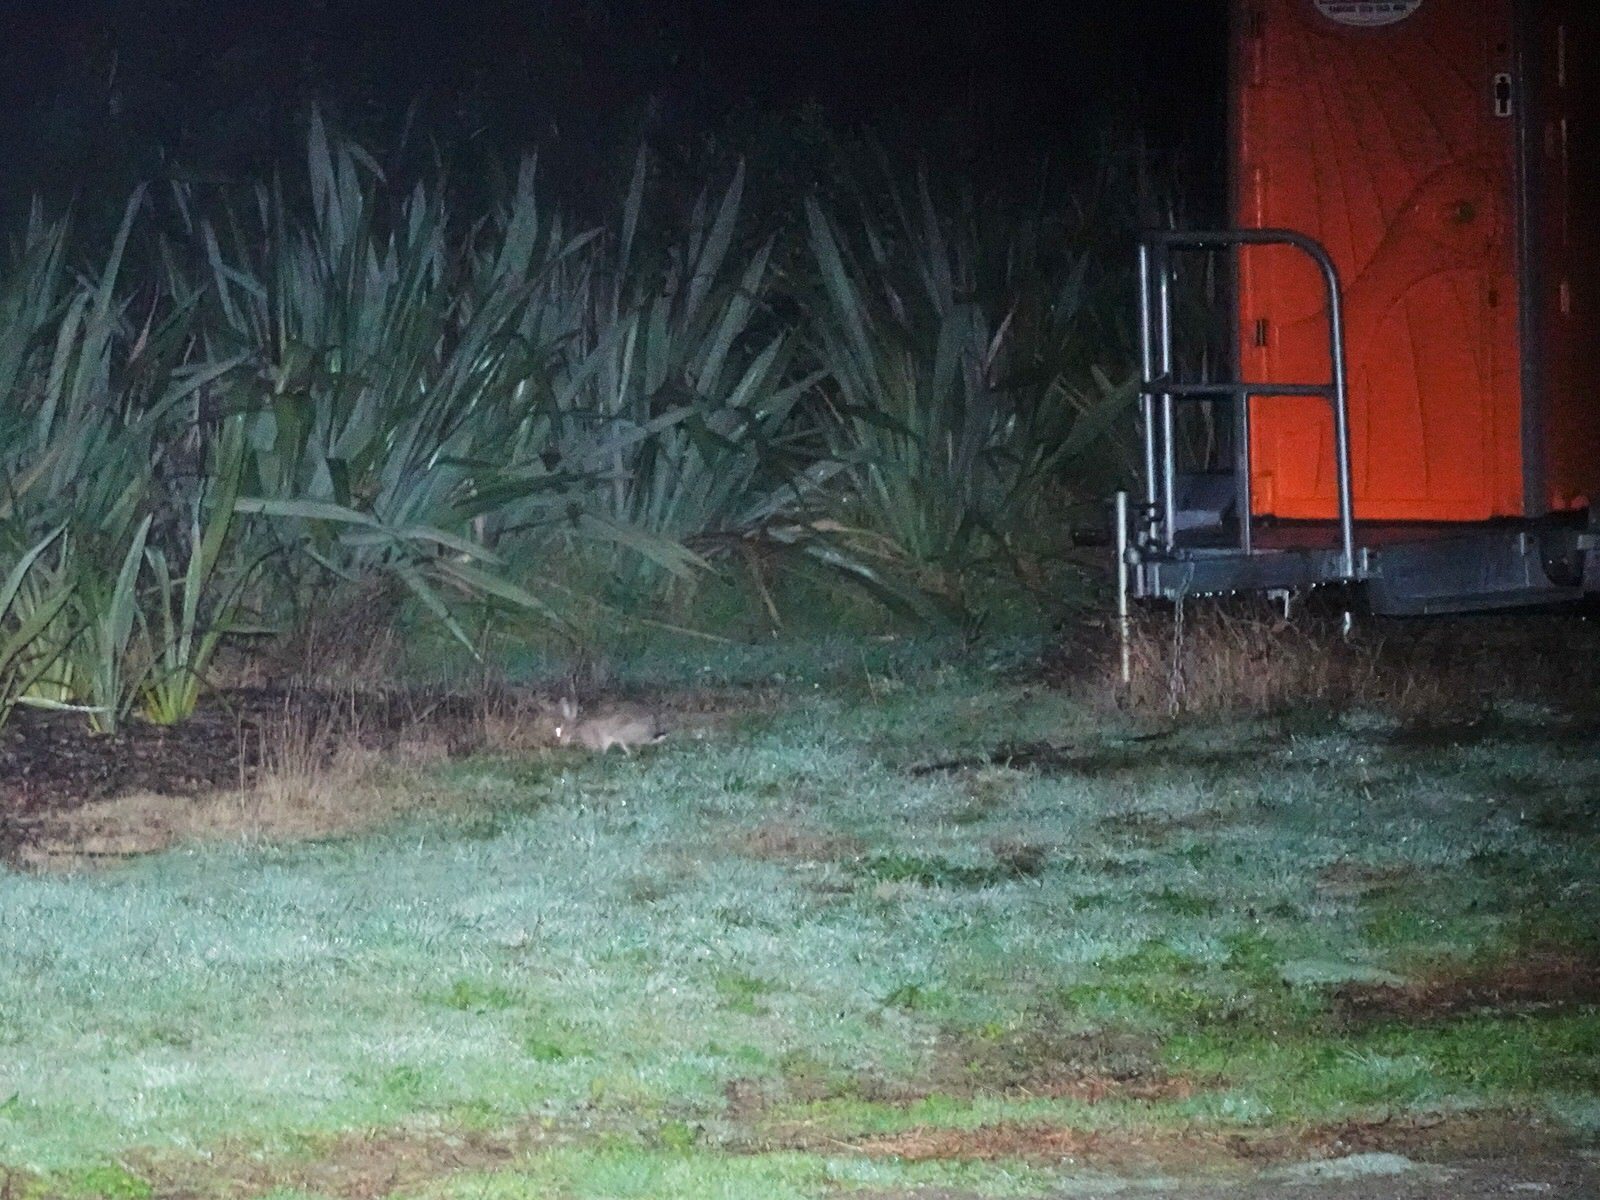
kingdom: Animalia
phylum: Chordata
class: Mammalia
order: Lagomorpha
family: Leporidae
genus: Oryctolagus
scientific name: Oryctolagus cuniculus
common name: European rabbit
